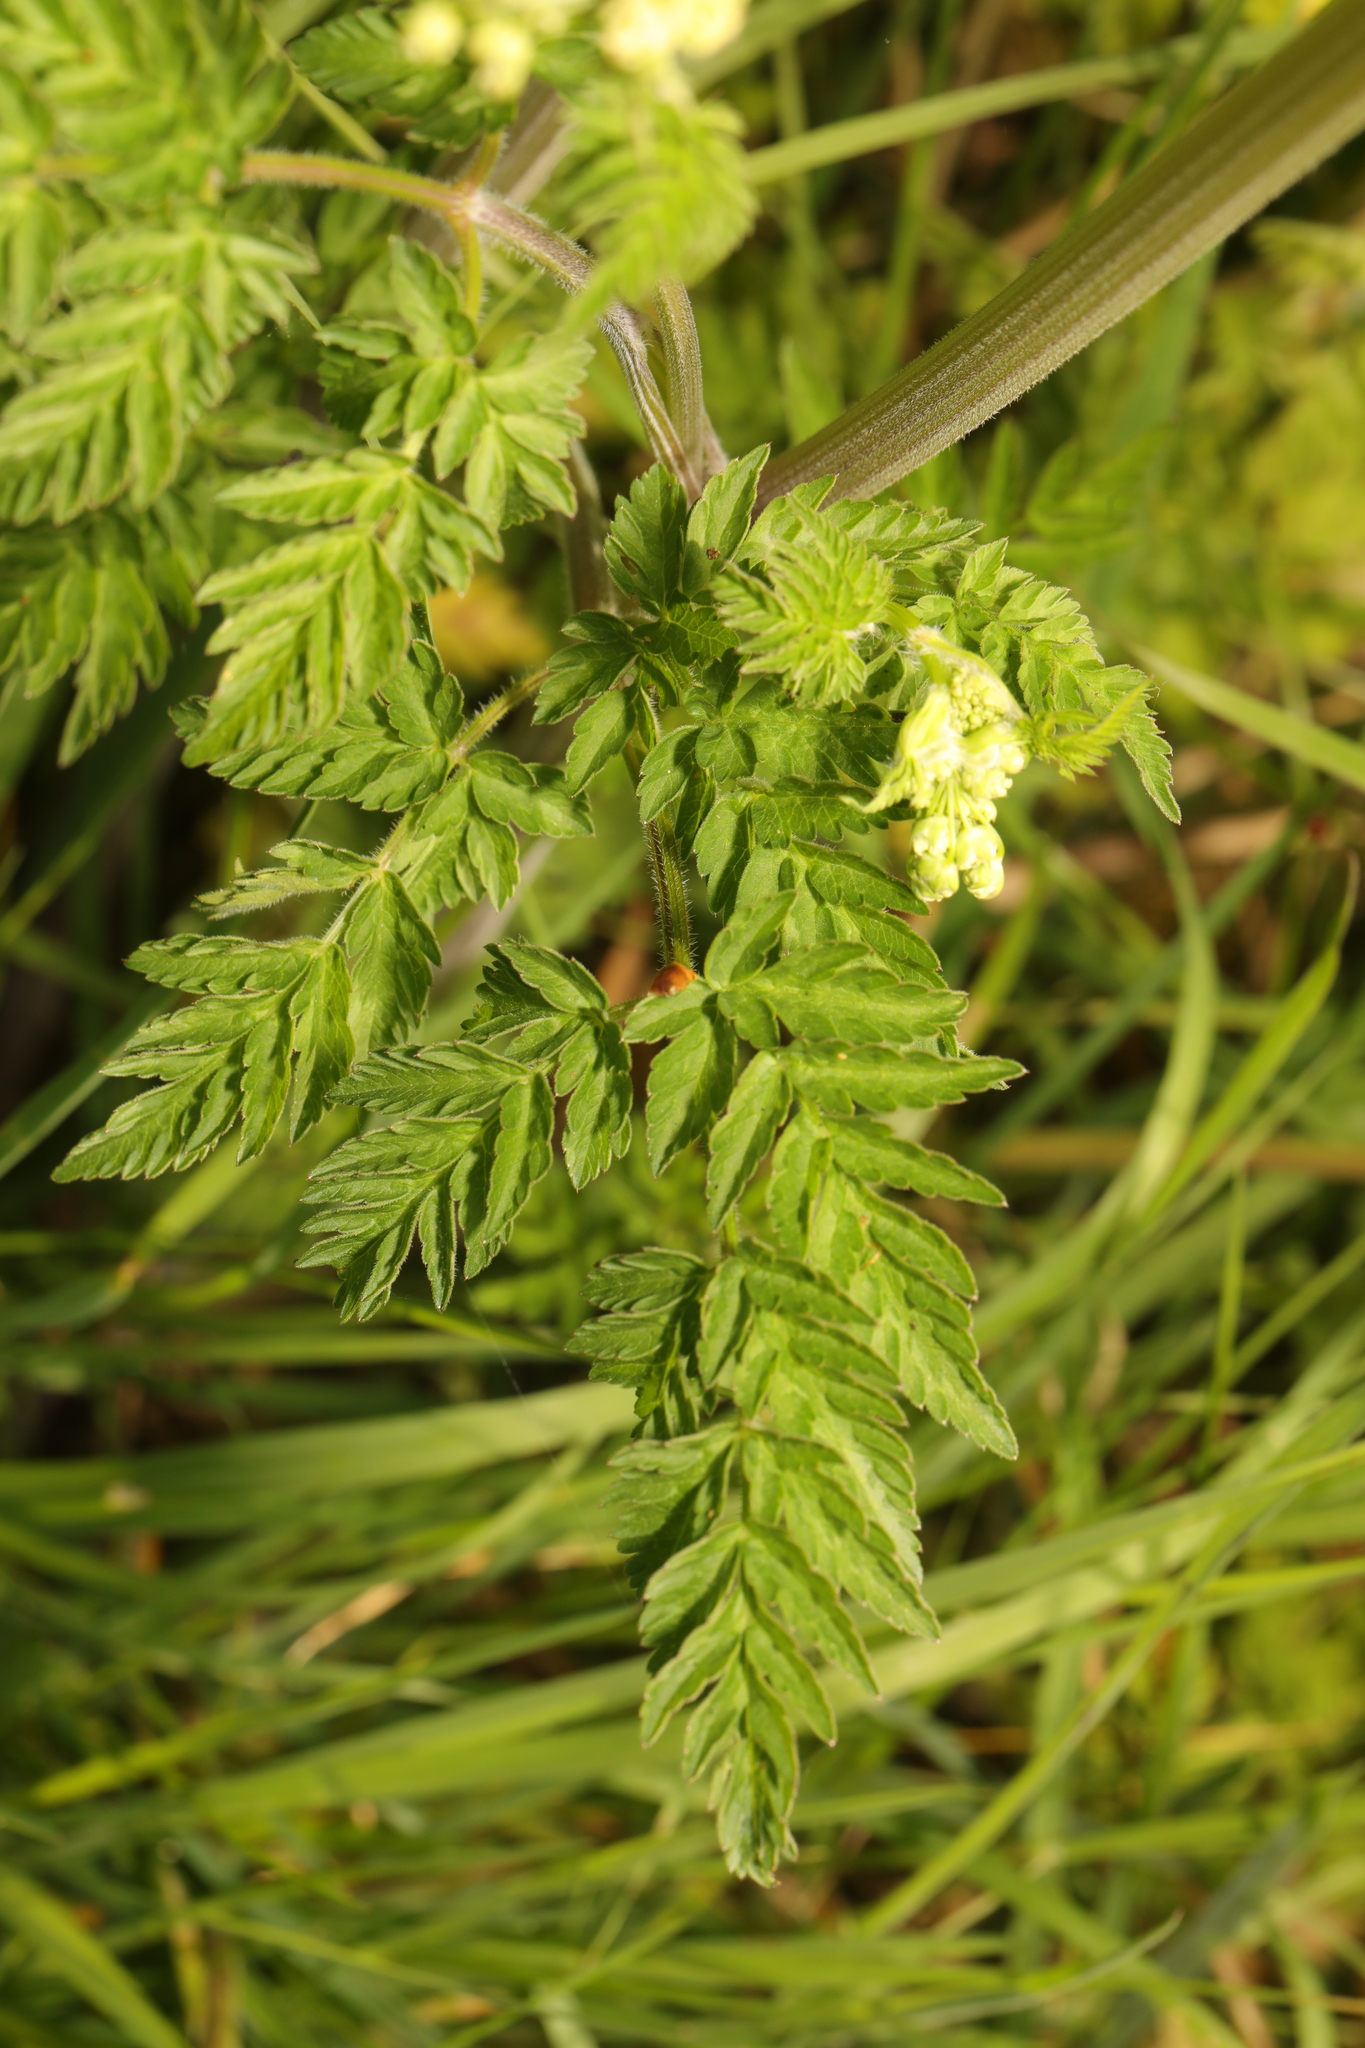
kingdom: Plantae
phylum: Tracheophyta
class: Magnoliopsida
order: Apiales
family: Apiaceae
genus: Anthriscus
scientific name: Anthriscus sylvestris
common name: Cow parsley
